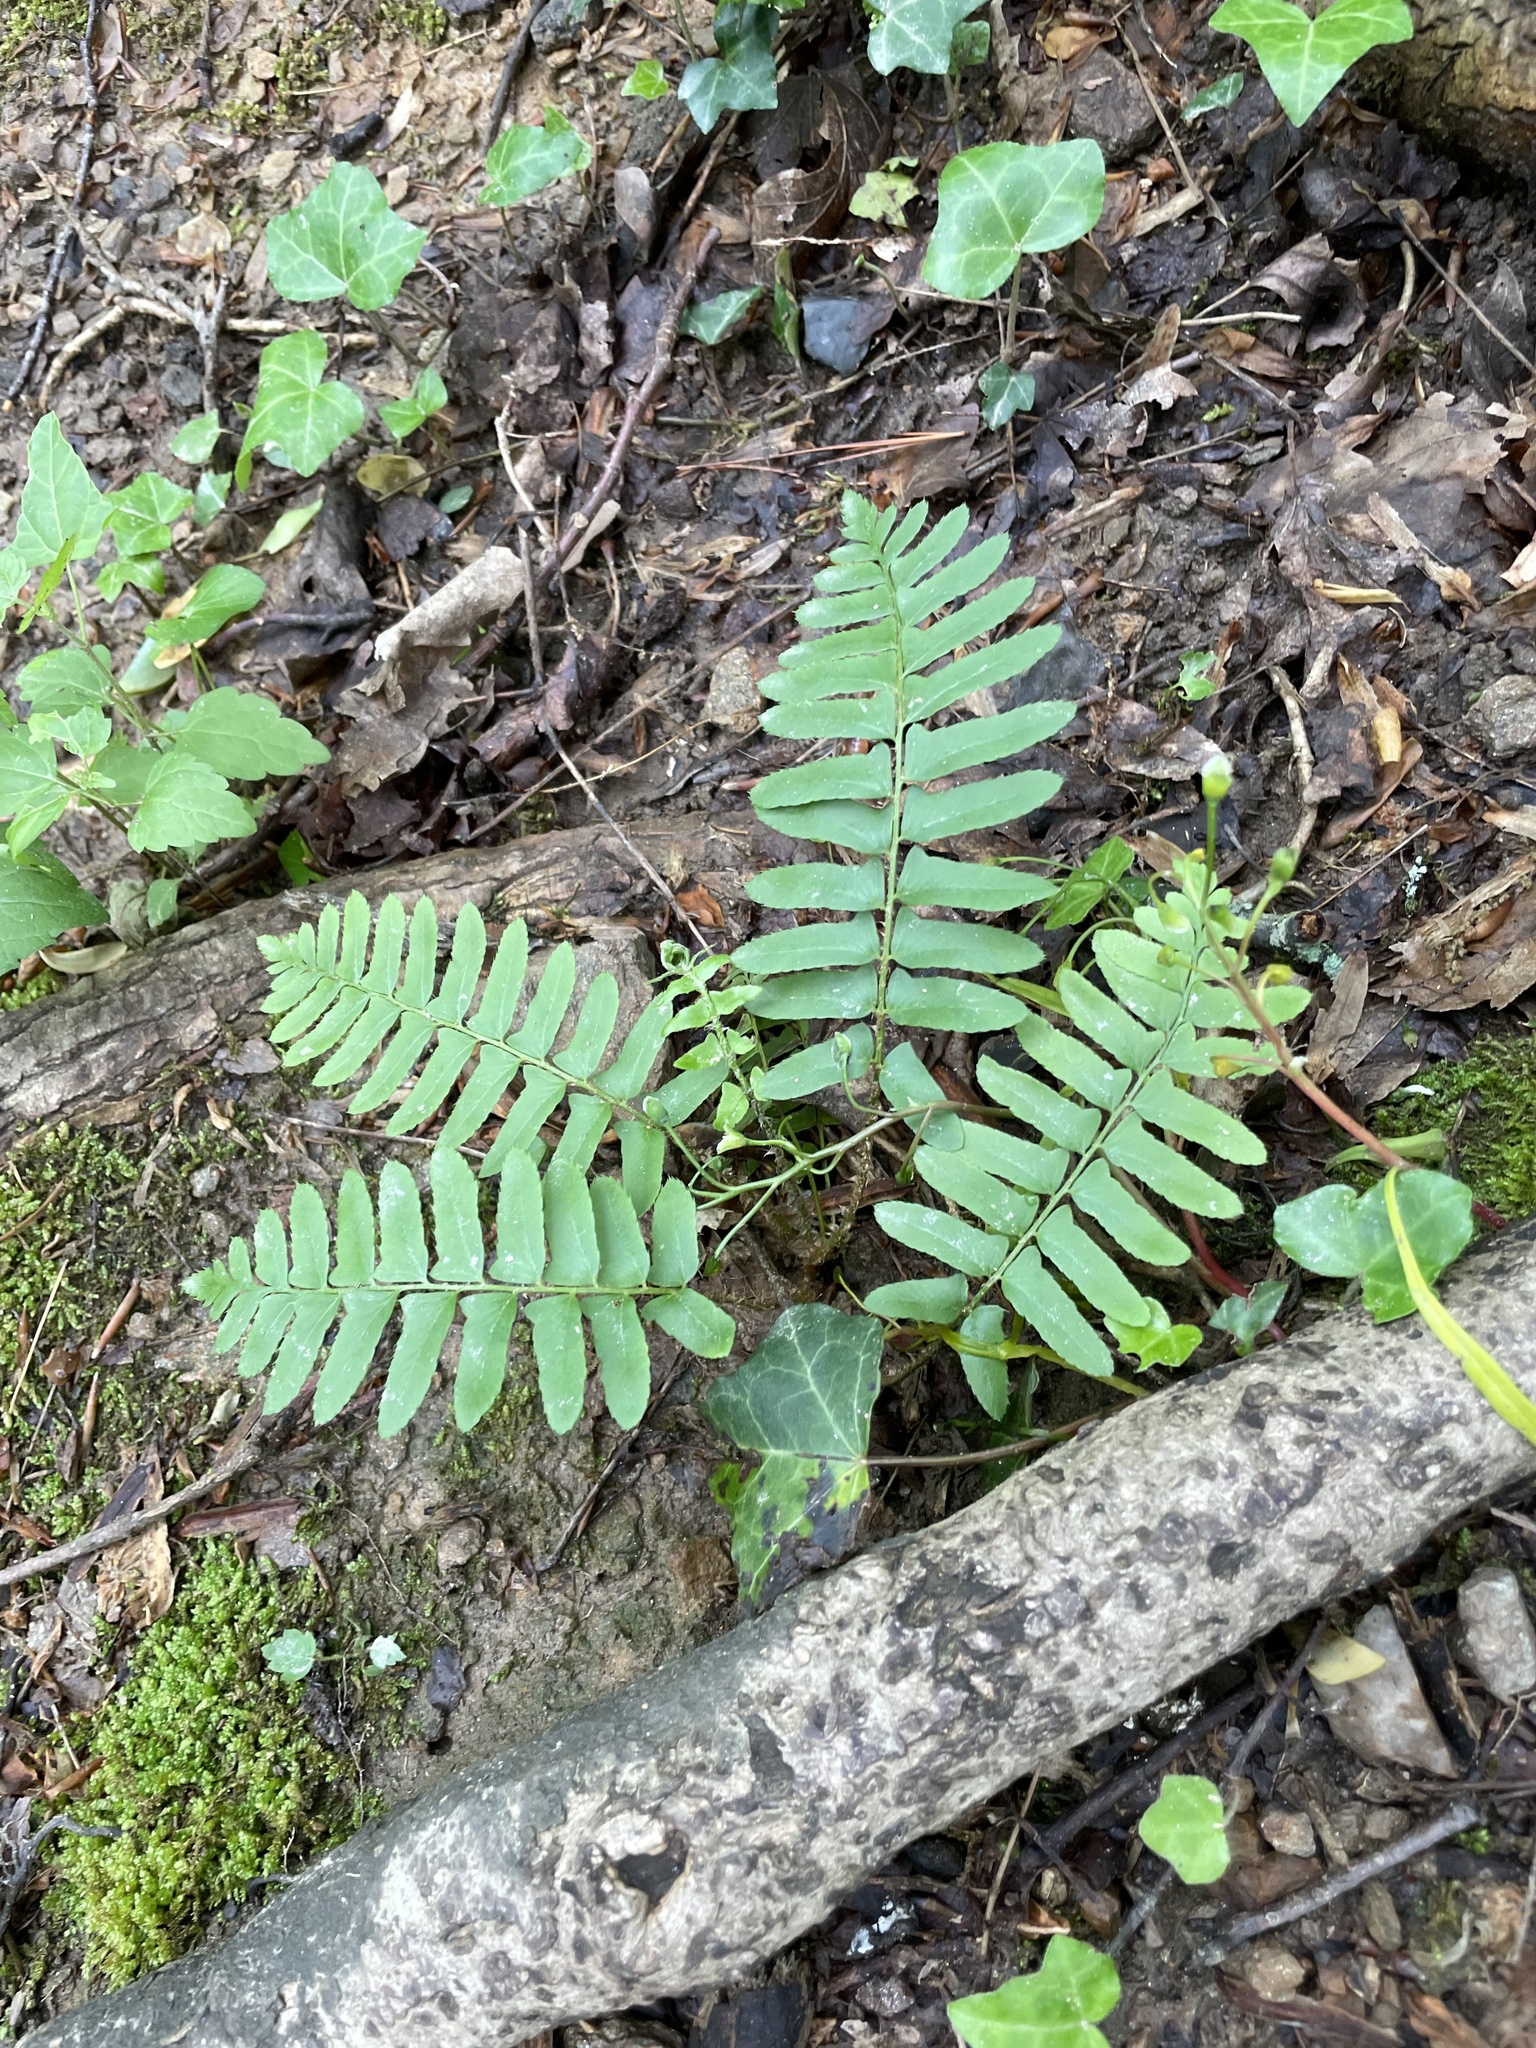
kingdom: Plantae
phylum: Tracheophyta
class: Polypodiopsida
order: Polypodiales
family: Dryopteridaceae
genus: Polystichum
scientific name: Polystichum acrostichoides
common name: Christmas fern
